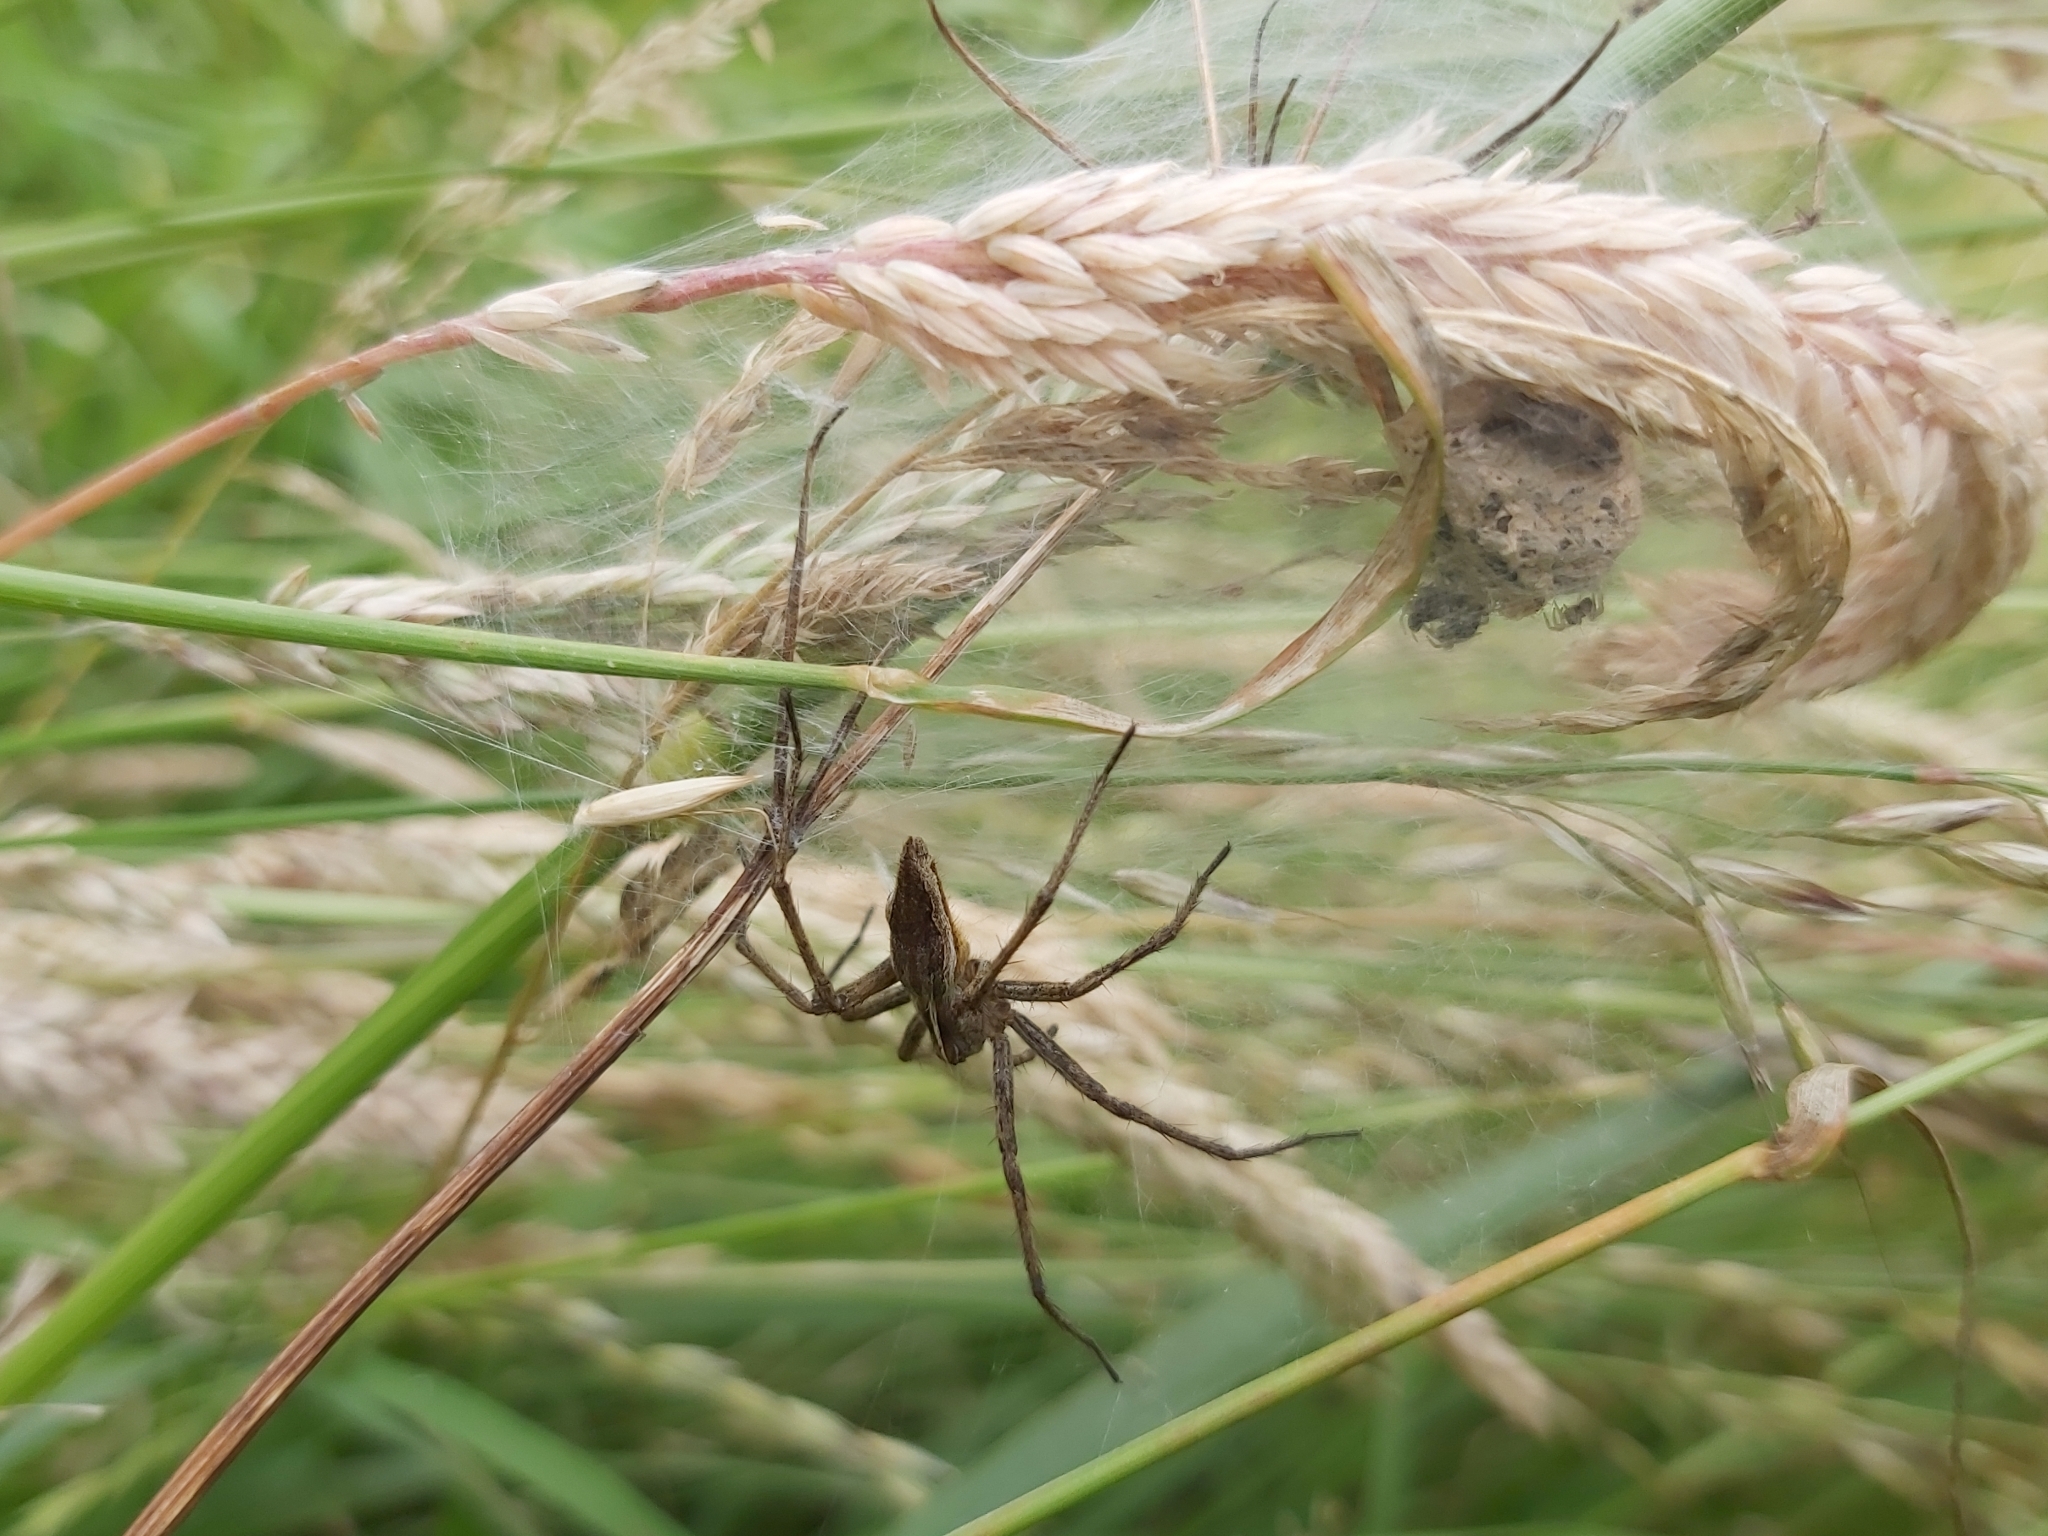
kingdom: Animalia
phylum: Arthropoda
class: Arachnida
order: Araneae
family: Pisauridae
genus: Pisaura
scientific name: Pisaura mirabilis
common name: Tent spider
